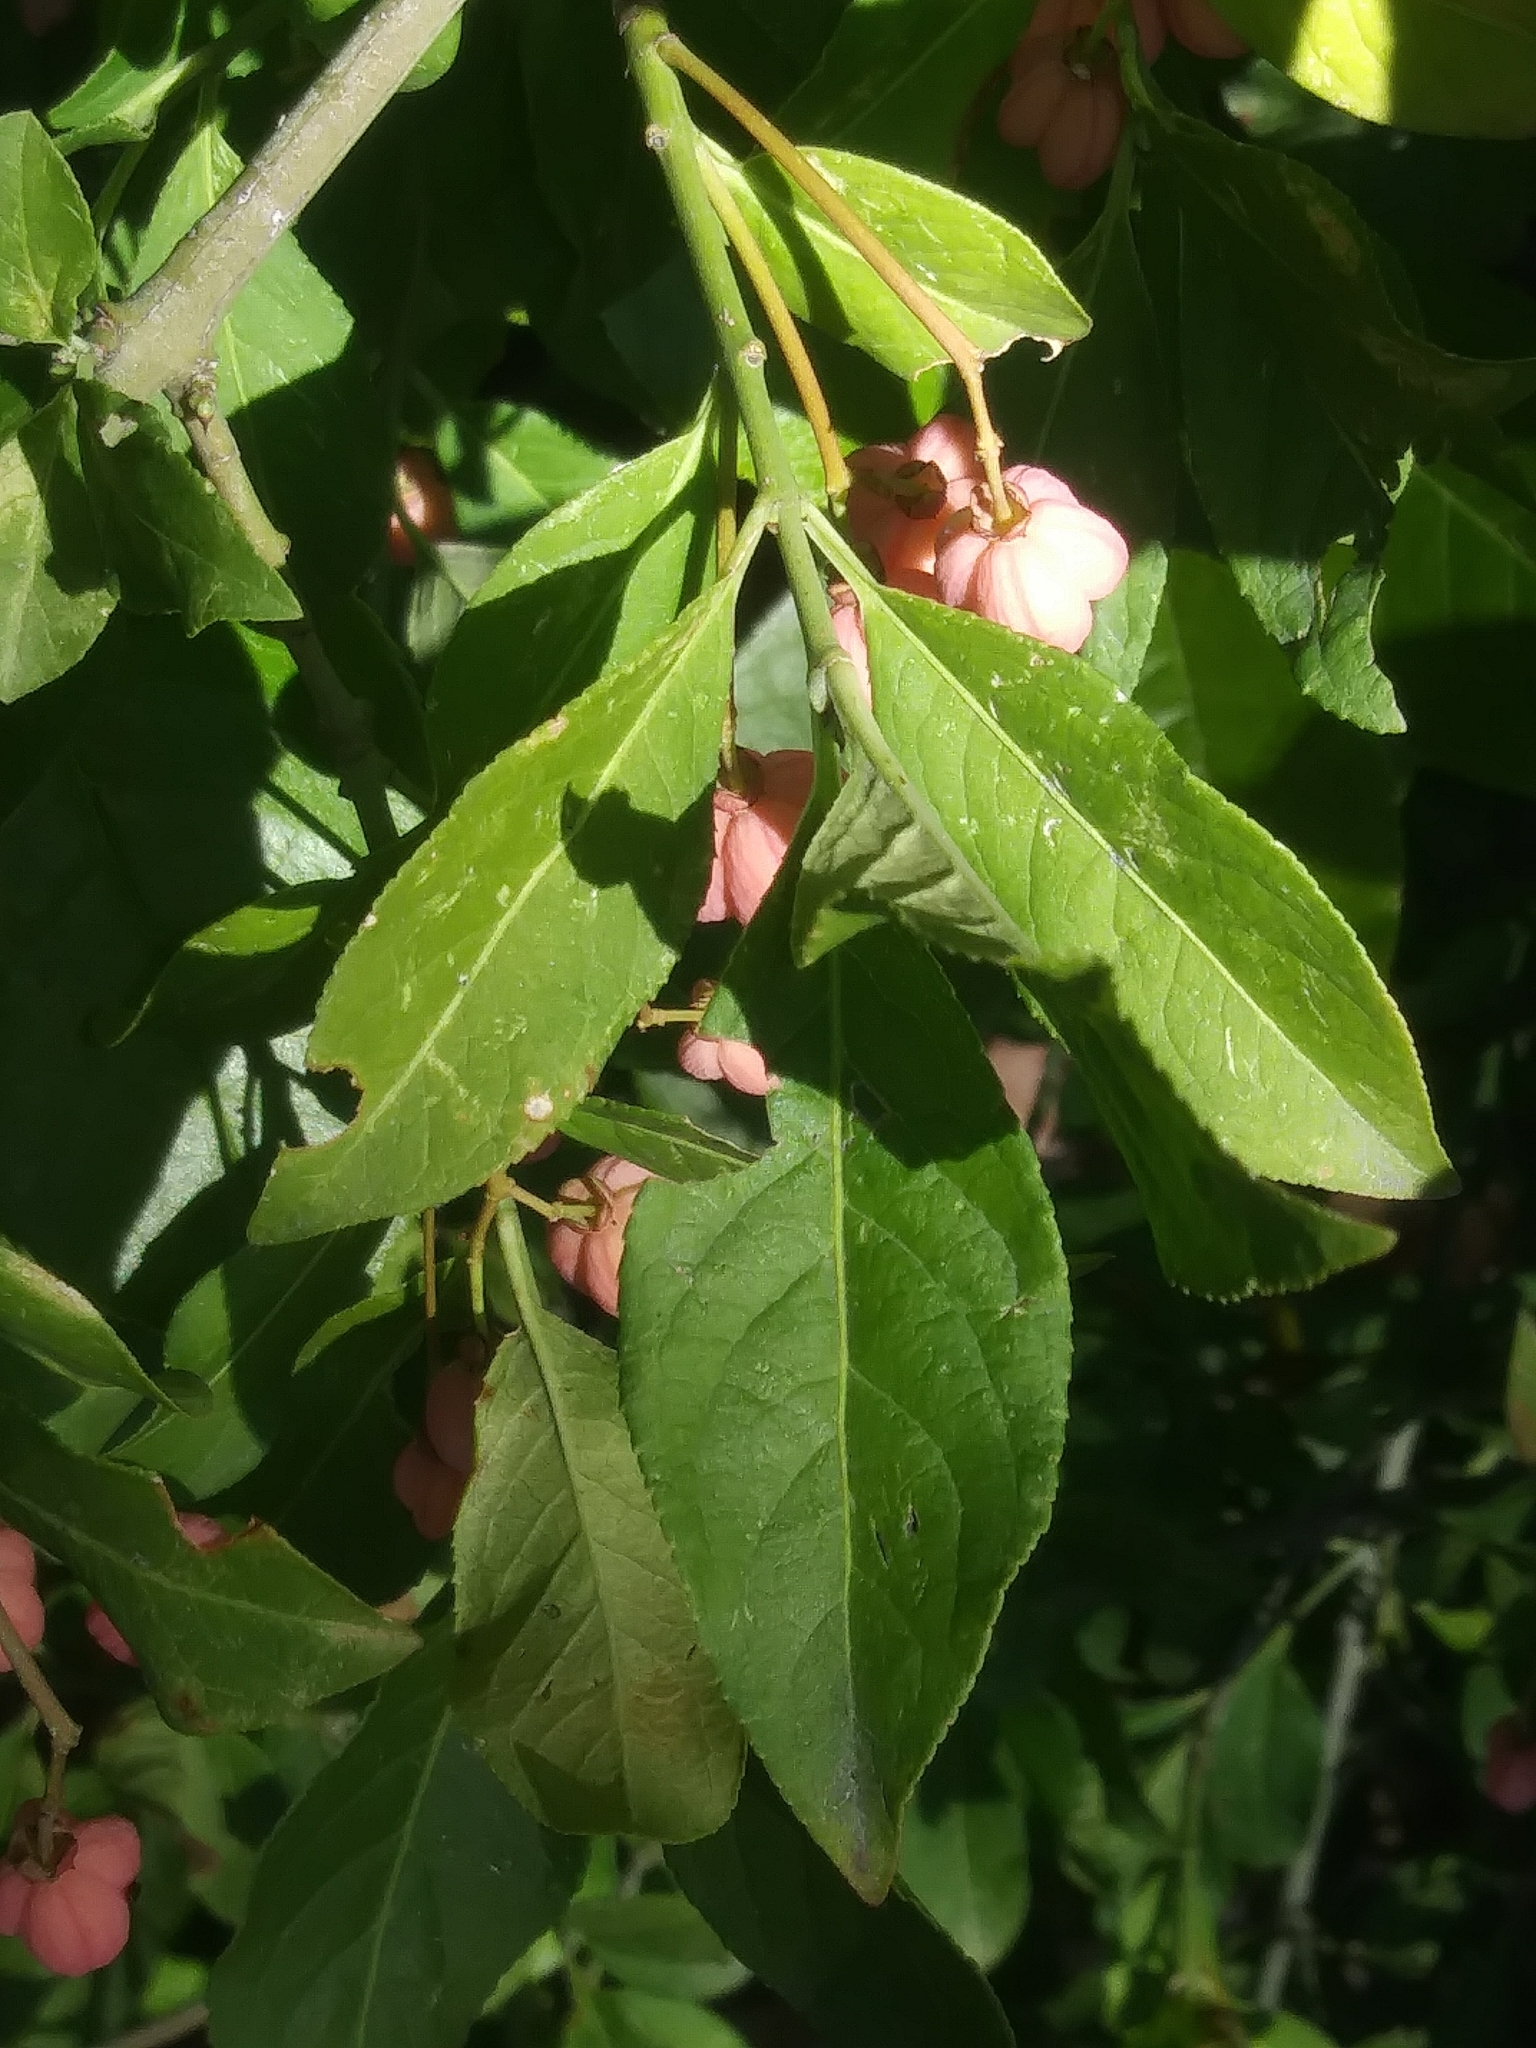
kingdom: Plantae
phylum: Tracheophyta
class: Magnoliopsida
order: Celastrales
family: Celastraceae
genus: Euonymus
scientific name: Euonymus europaeus
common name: Spindle
